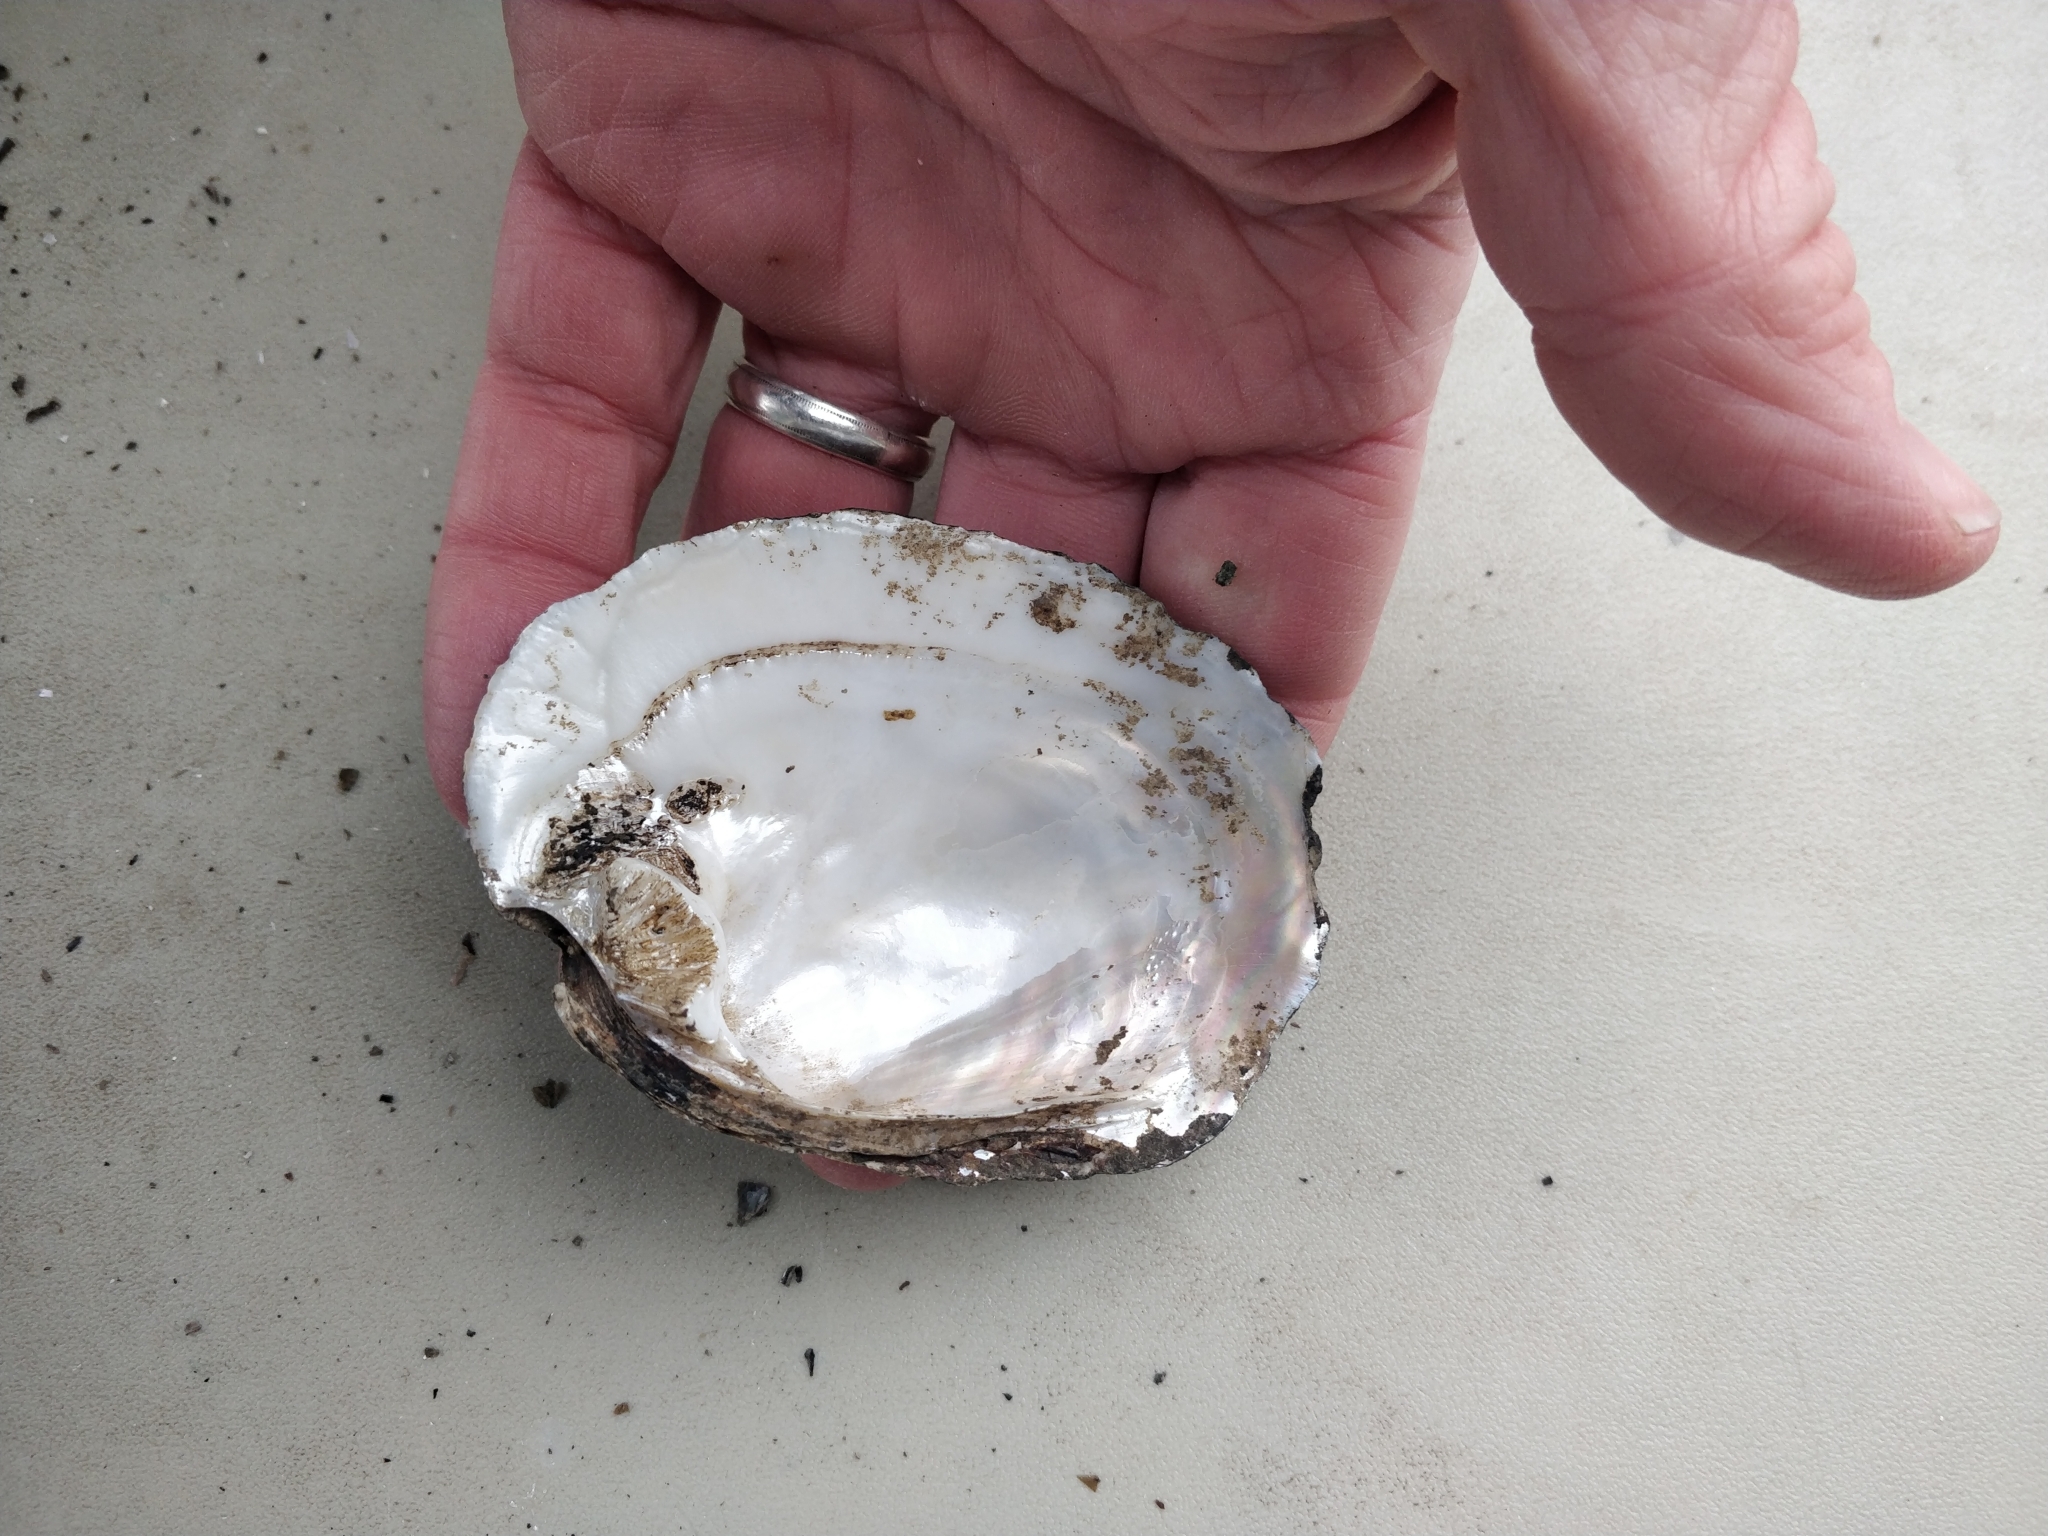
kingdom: Animalia
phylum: Mollusca
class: Bivalvia
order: Unionida
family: Unionidae
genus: Amblema
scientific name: Amblema plicata
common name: Threeridge
